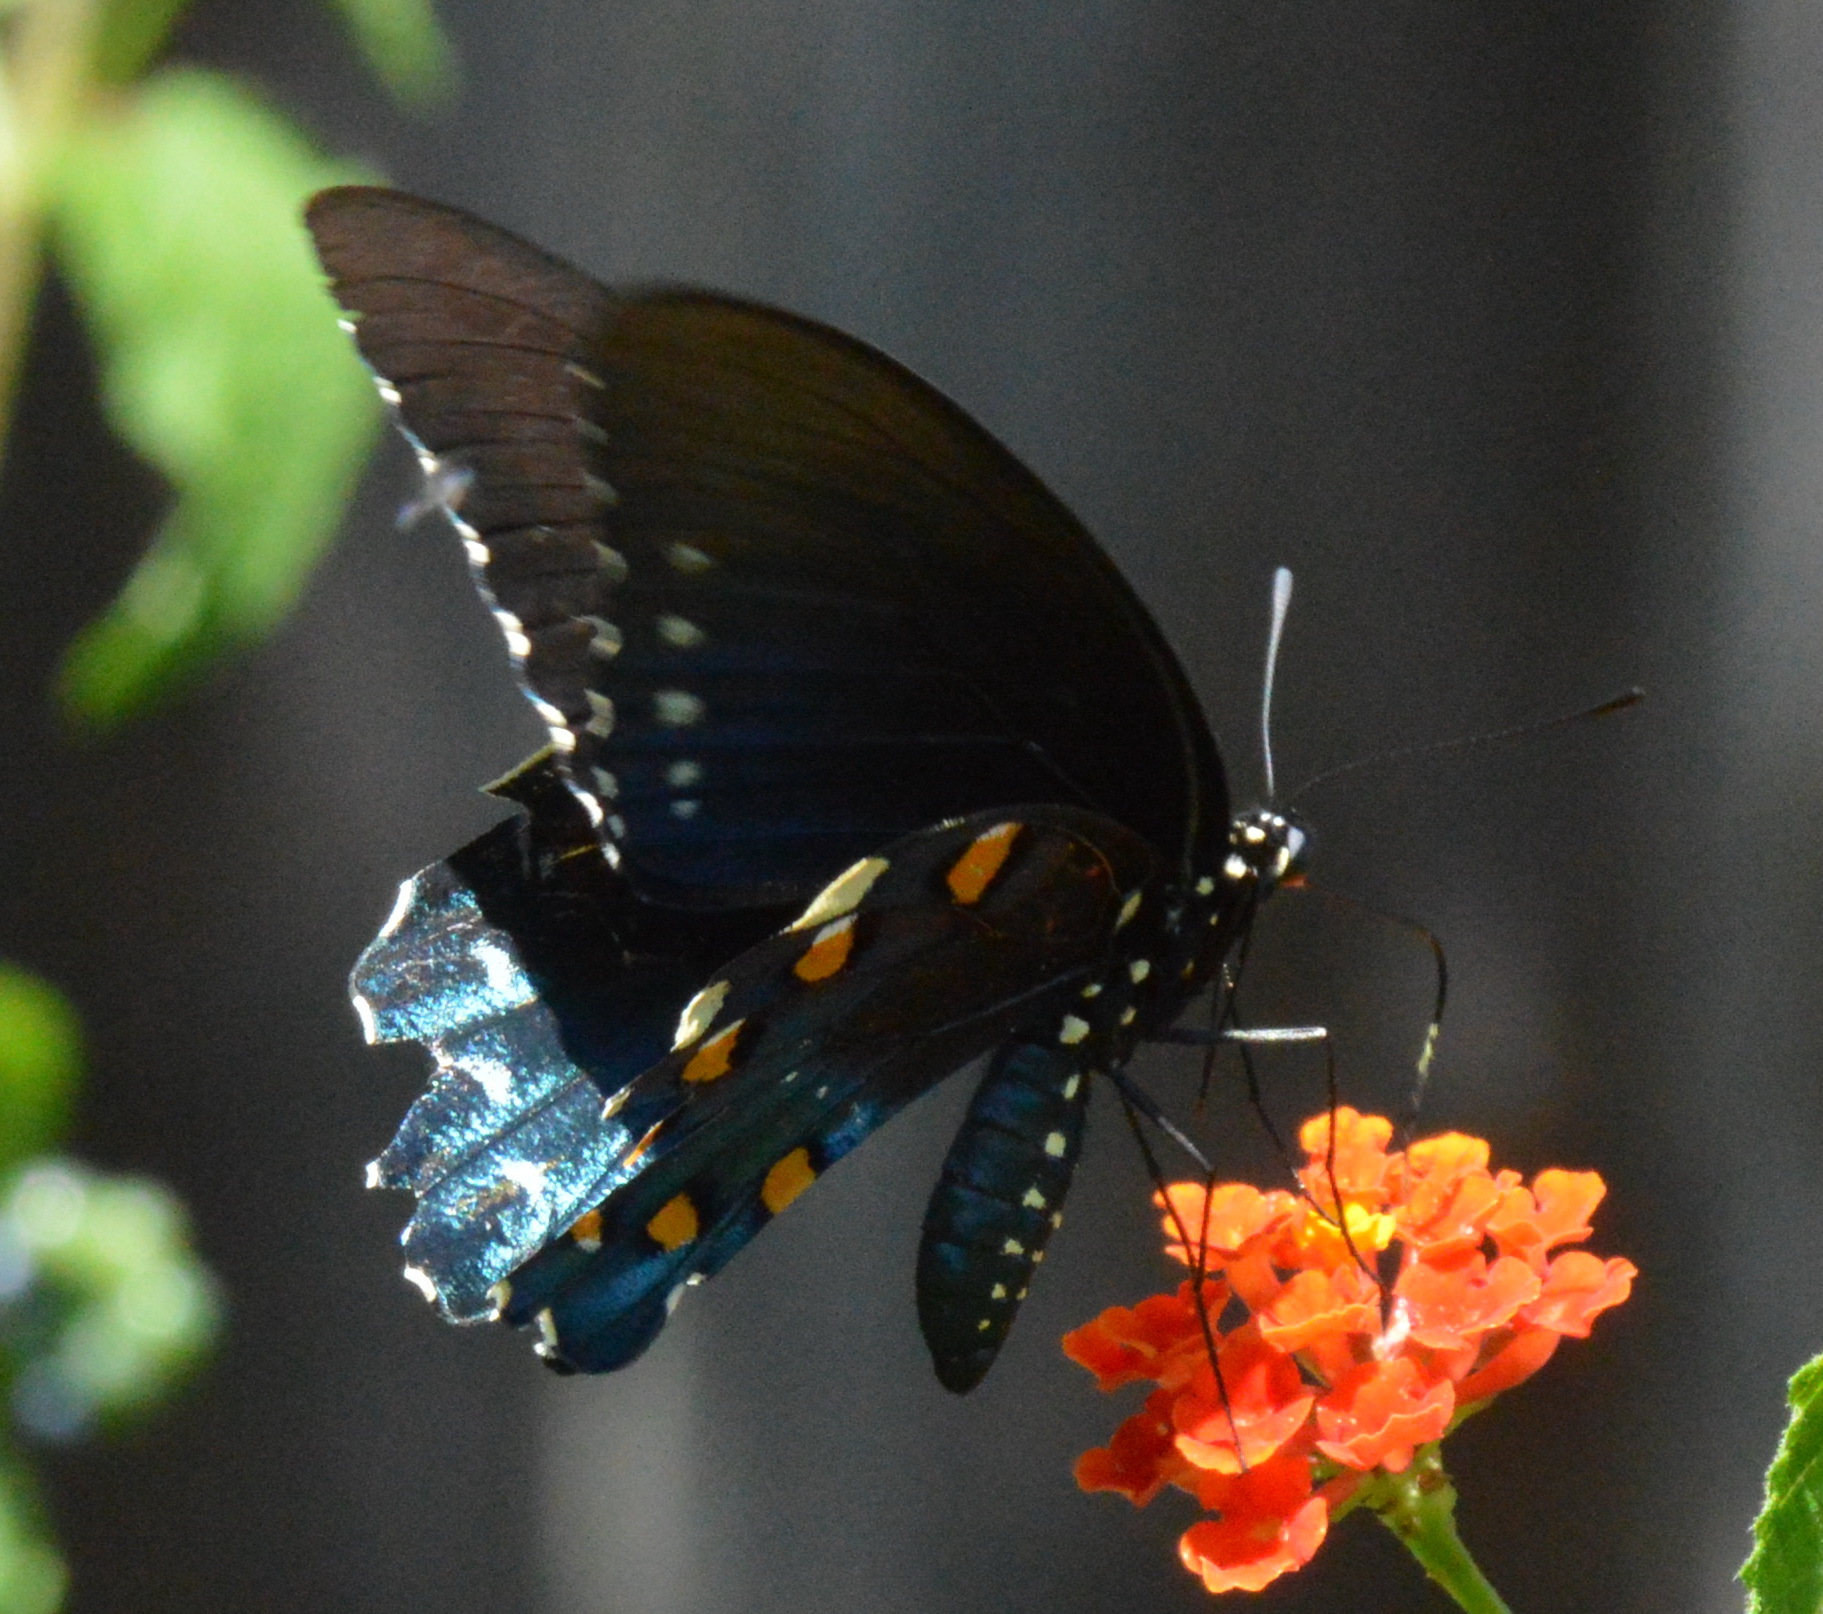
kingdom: Animalia
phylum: Arthropoda
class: Insecta
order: Lepidoptera
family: Papilionidae
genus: Battus
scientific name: Battus philenor
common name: Pipevine swallowtail
